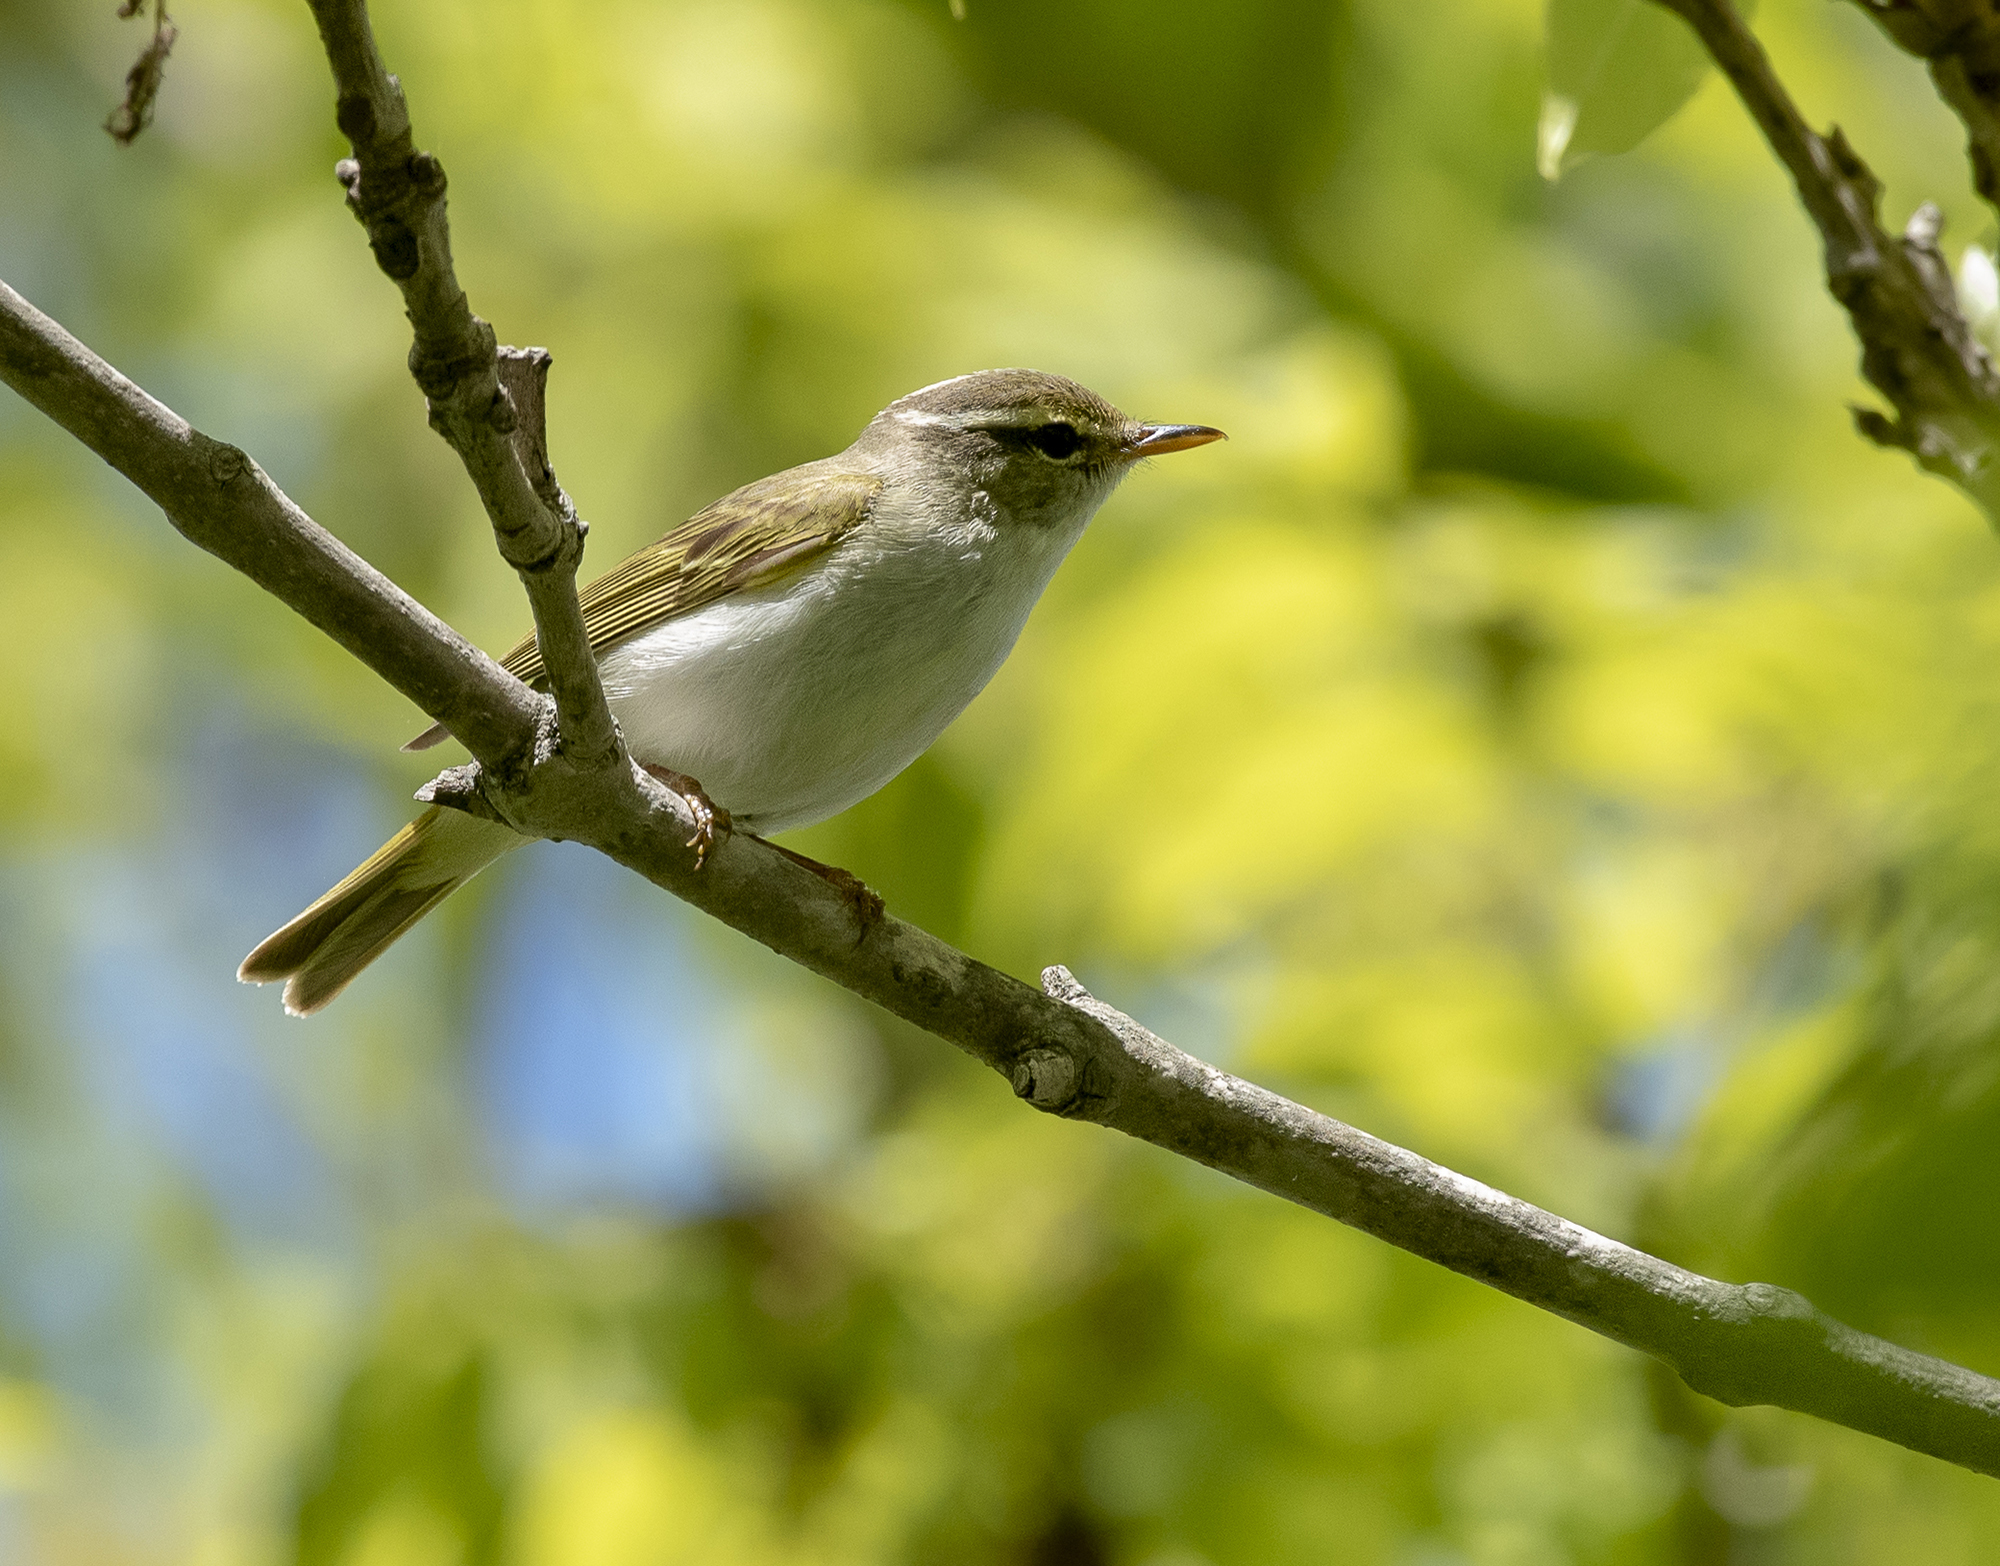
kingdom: Animalia
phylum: Chordata
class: Aves
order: Passeriformes
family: Phylloscopidae
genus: Phylloscopus
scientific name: Phylloscopus coronatus
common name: Eastern crowned warbler
